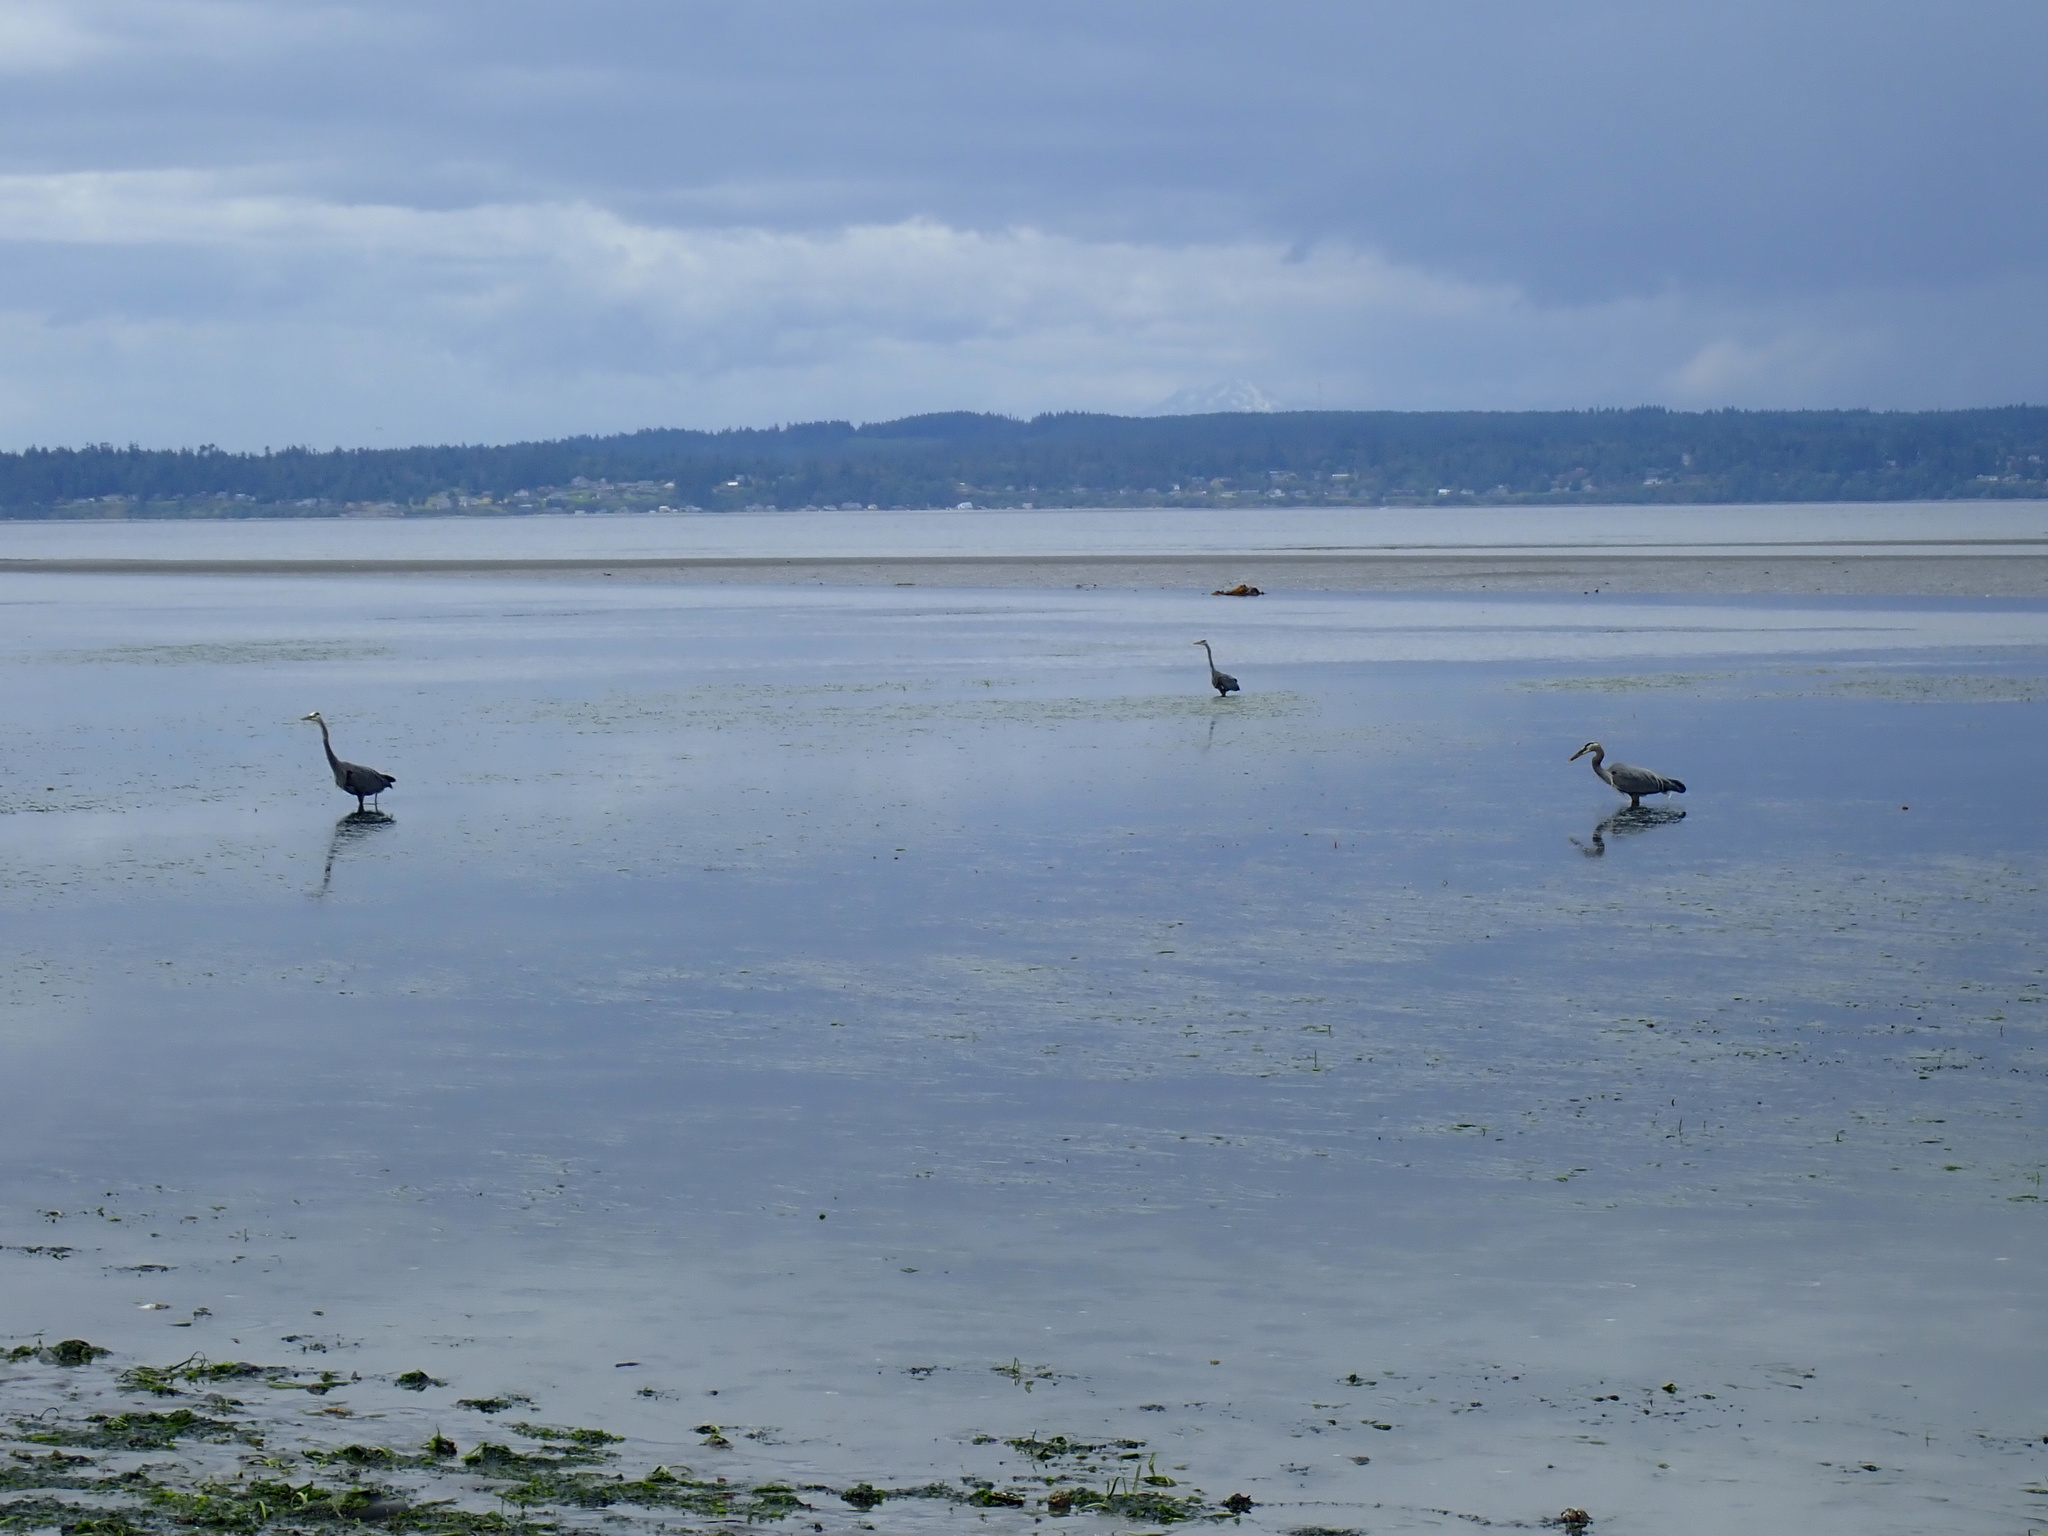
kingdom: Animalia
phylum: Chordata
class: Aves
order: Pelecaniformes
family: Ardeidae
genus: Ardea
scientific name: Ardea herodias
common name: Great blue heron
